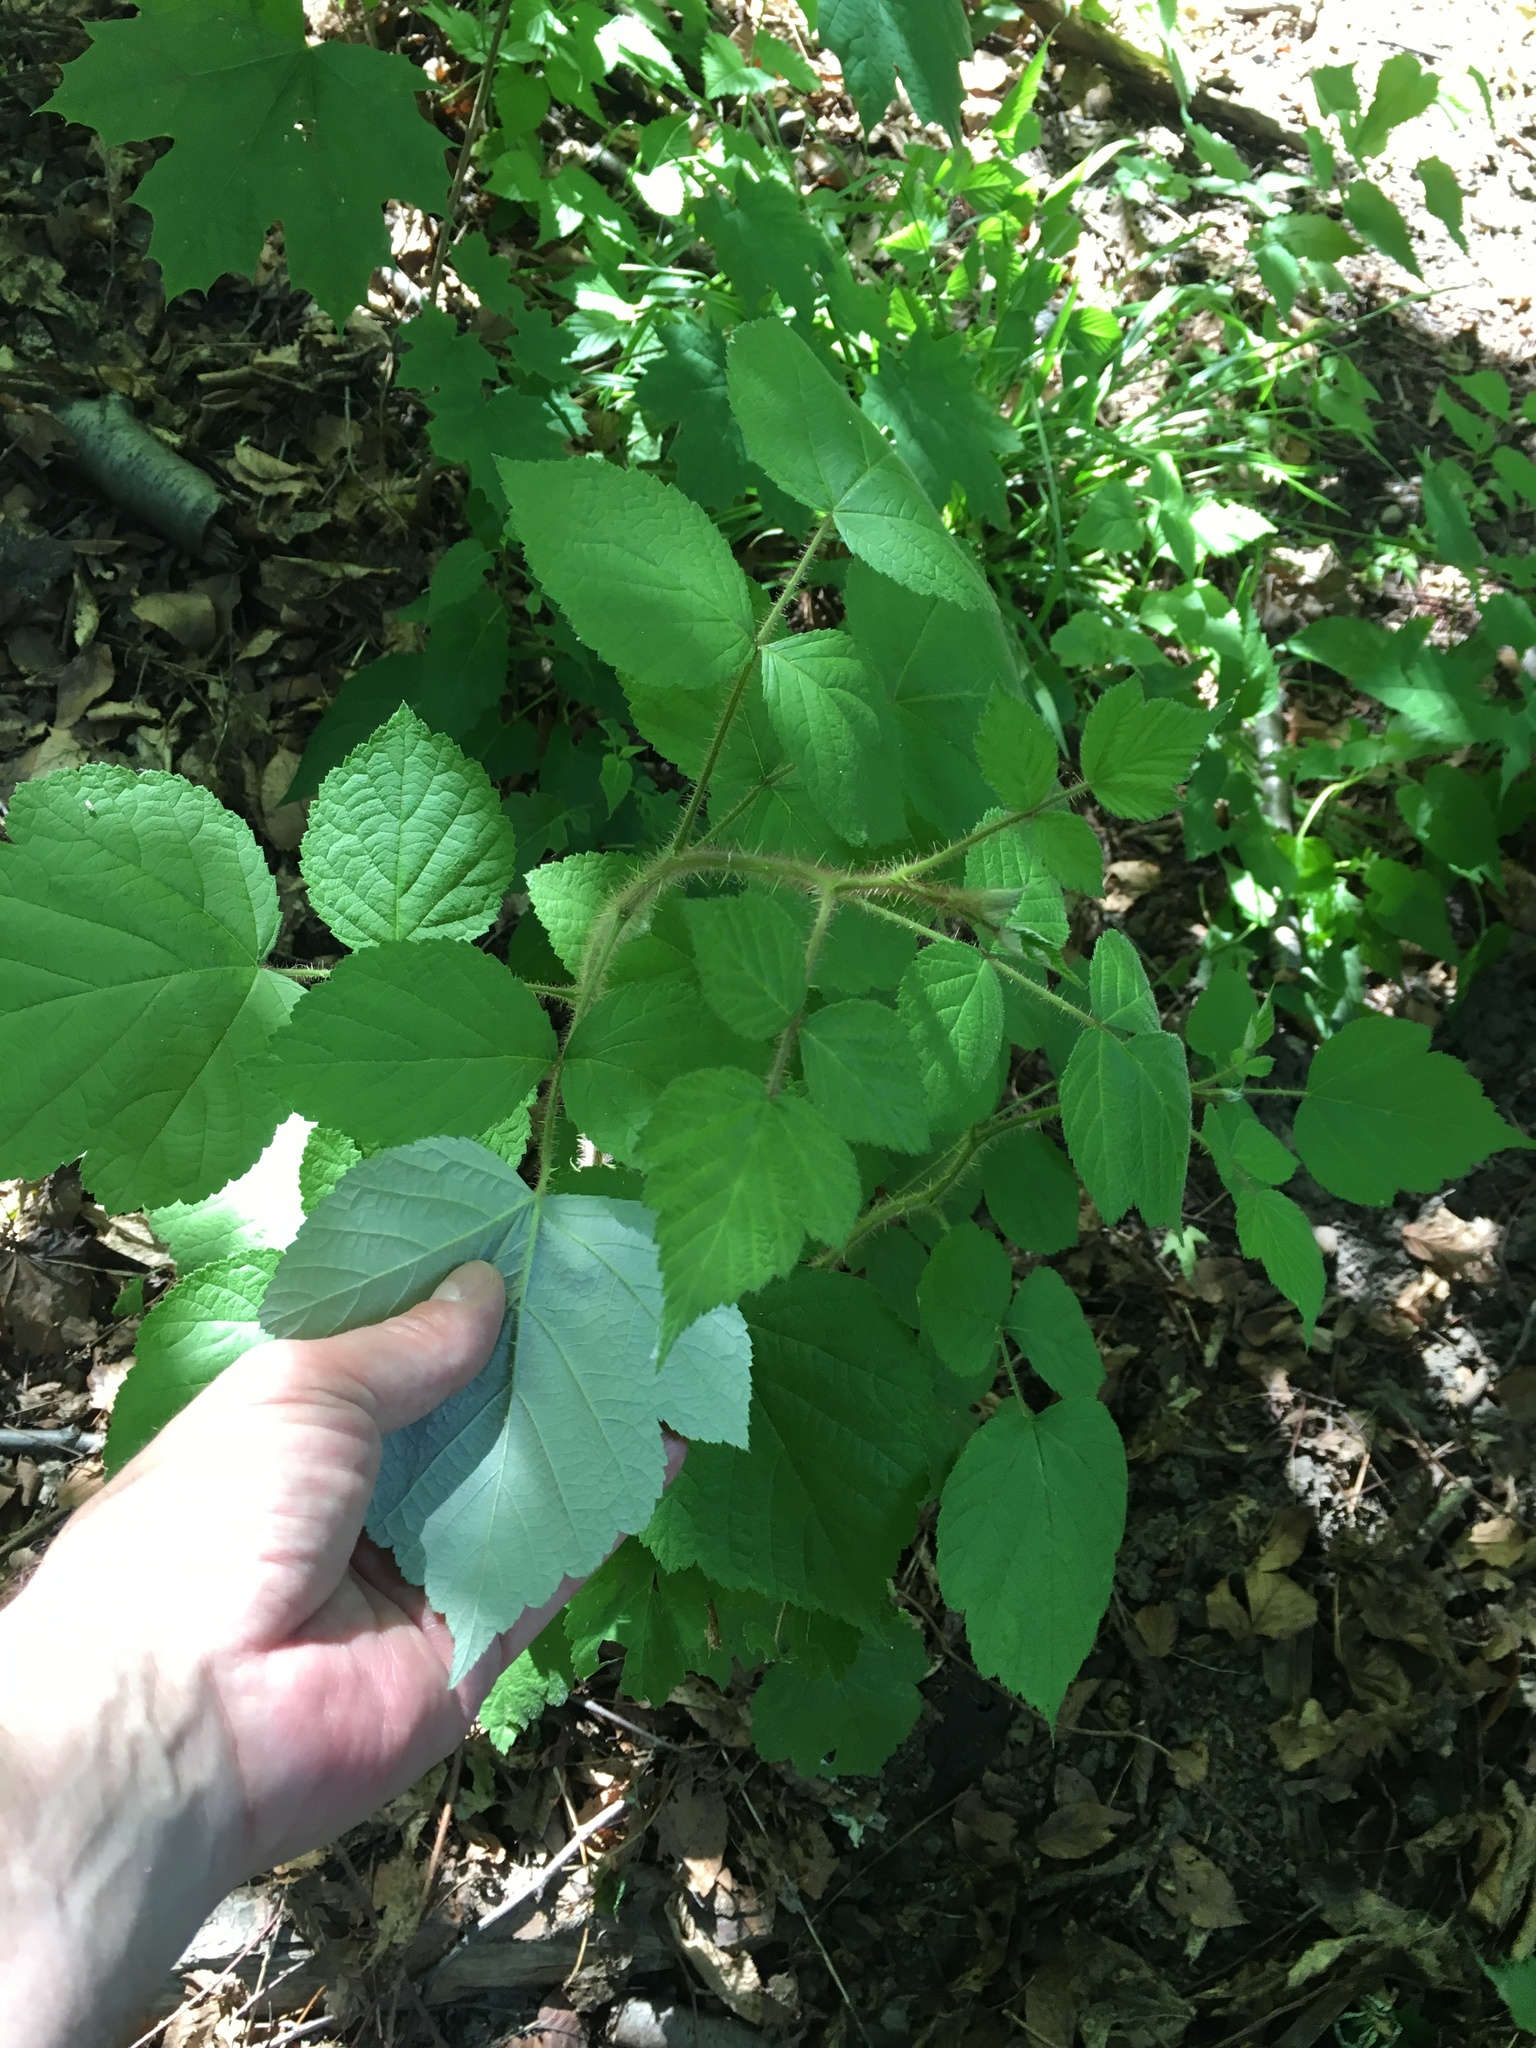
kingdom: Plantae
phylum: Tracheophyta
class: Magnoliopsida
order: Rosales
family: Rosaceae
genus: Rubus
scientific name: Rubus phoenicolasius
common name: Japanese wineberry
